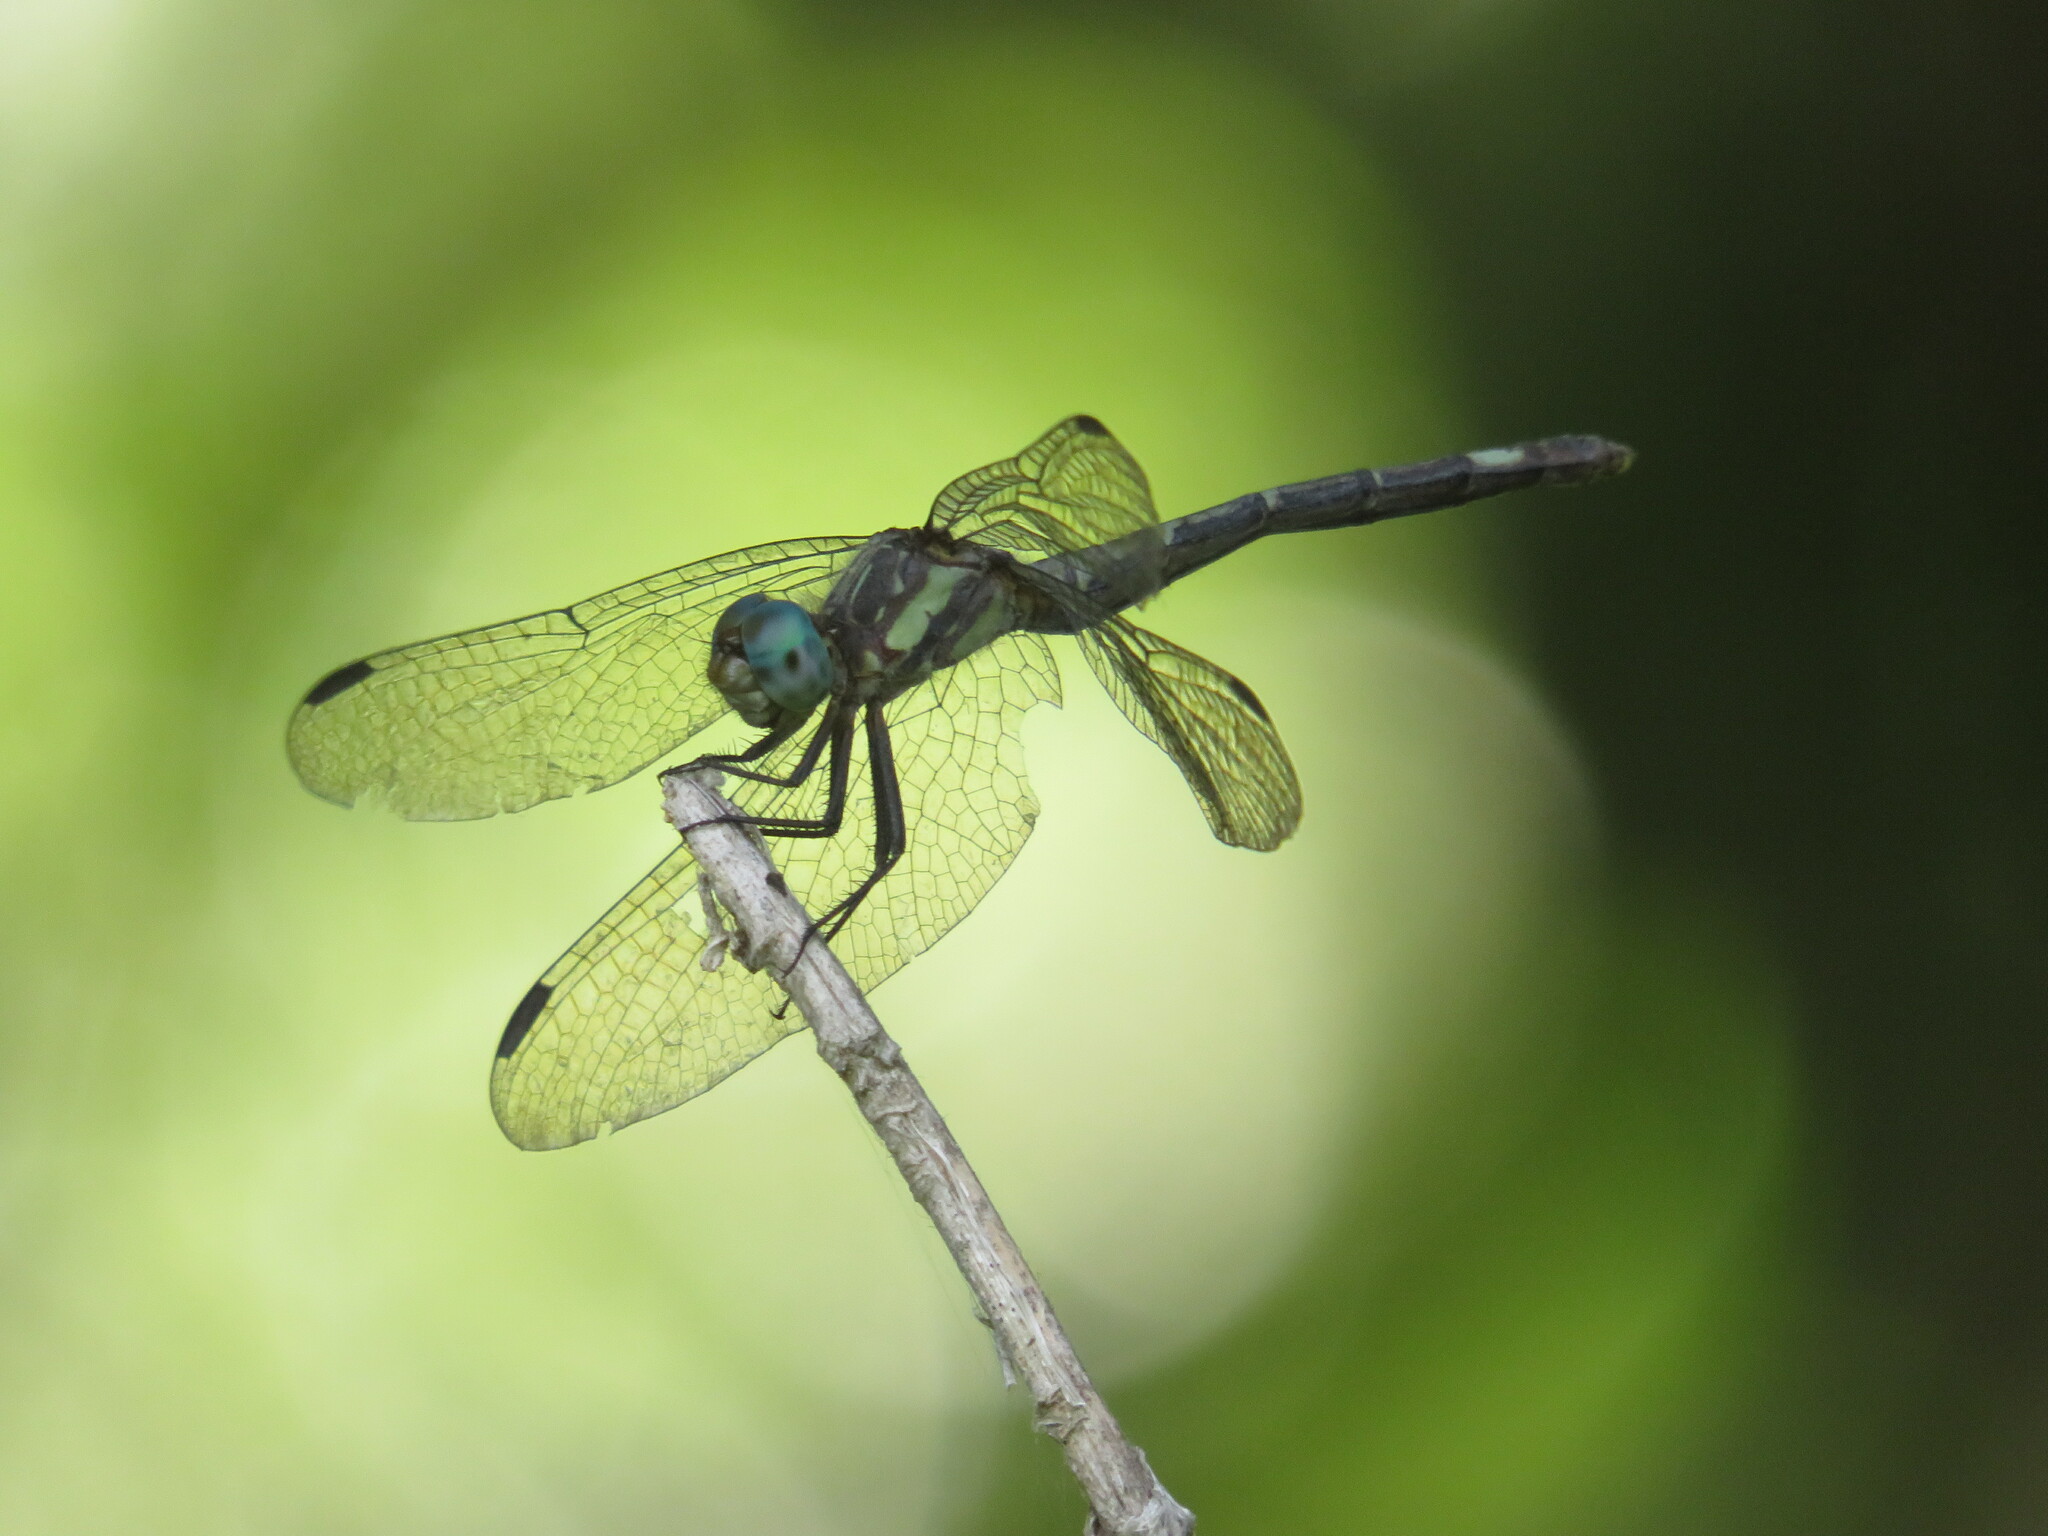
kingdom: Animalia
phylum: Arthropoda
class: Insecta
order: Odonata
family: Libellulidae
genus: Micrathyria
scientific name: Micrathyria hypodidyma
